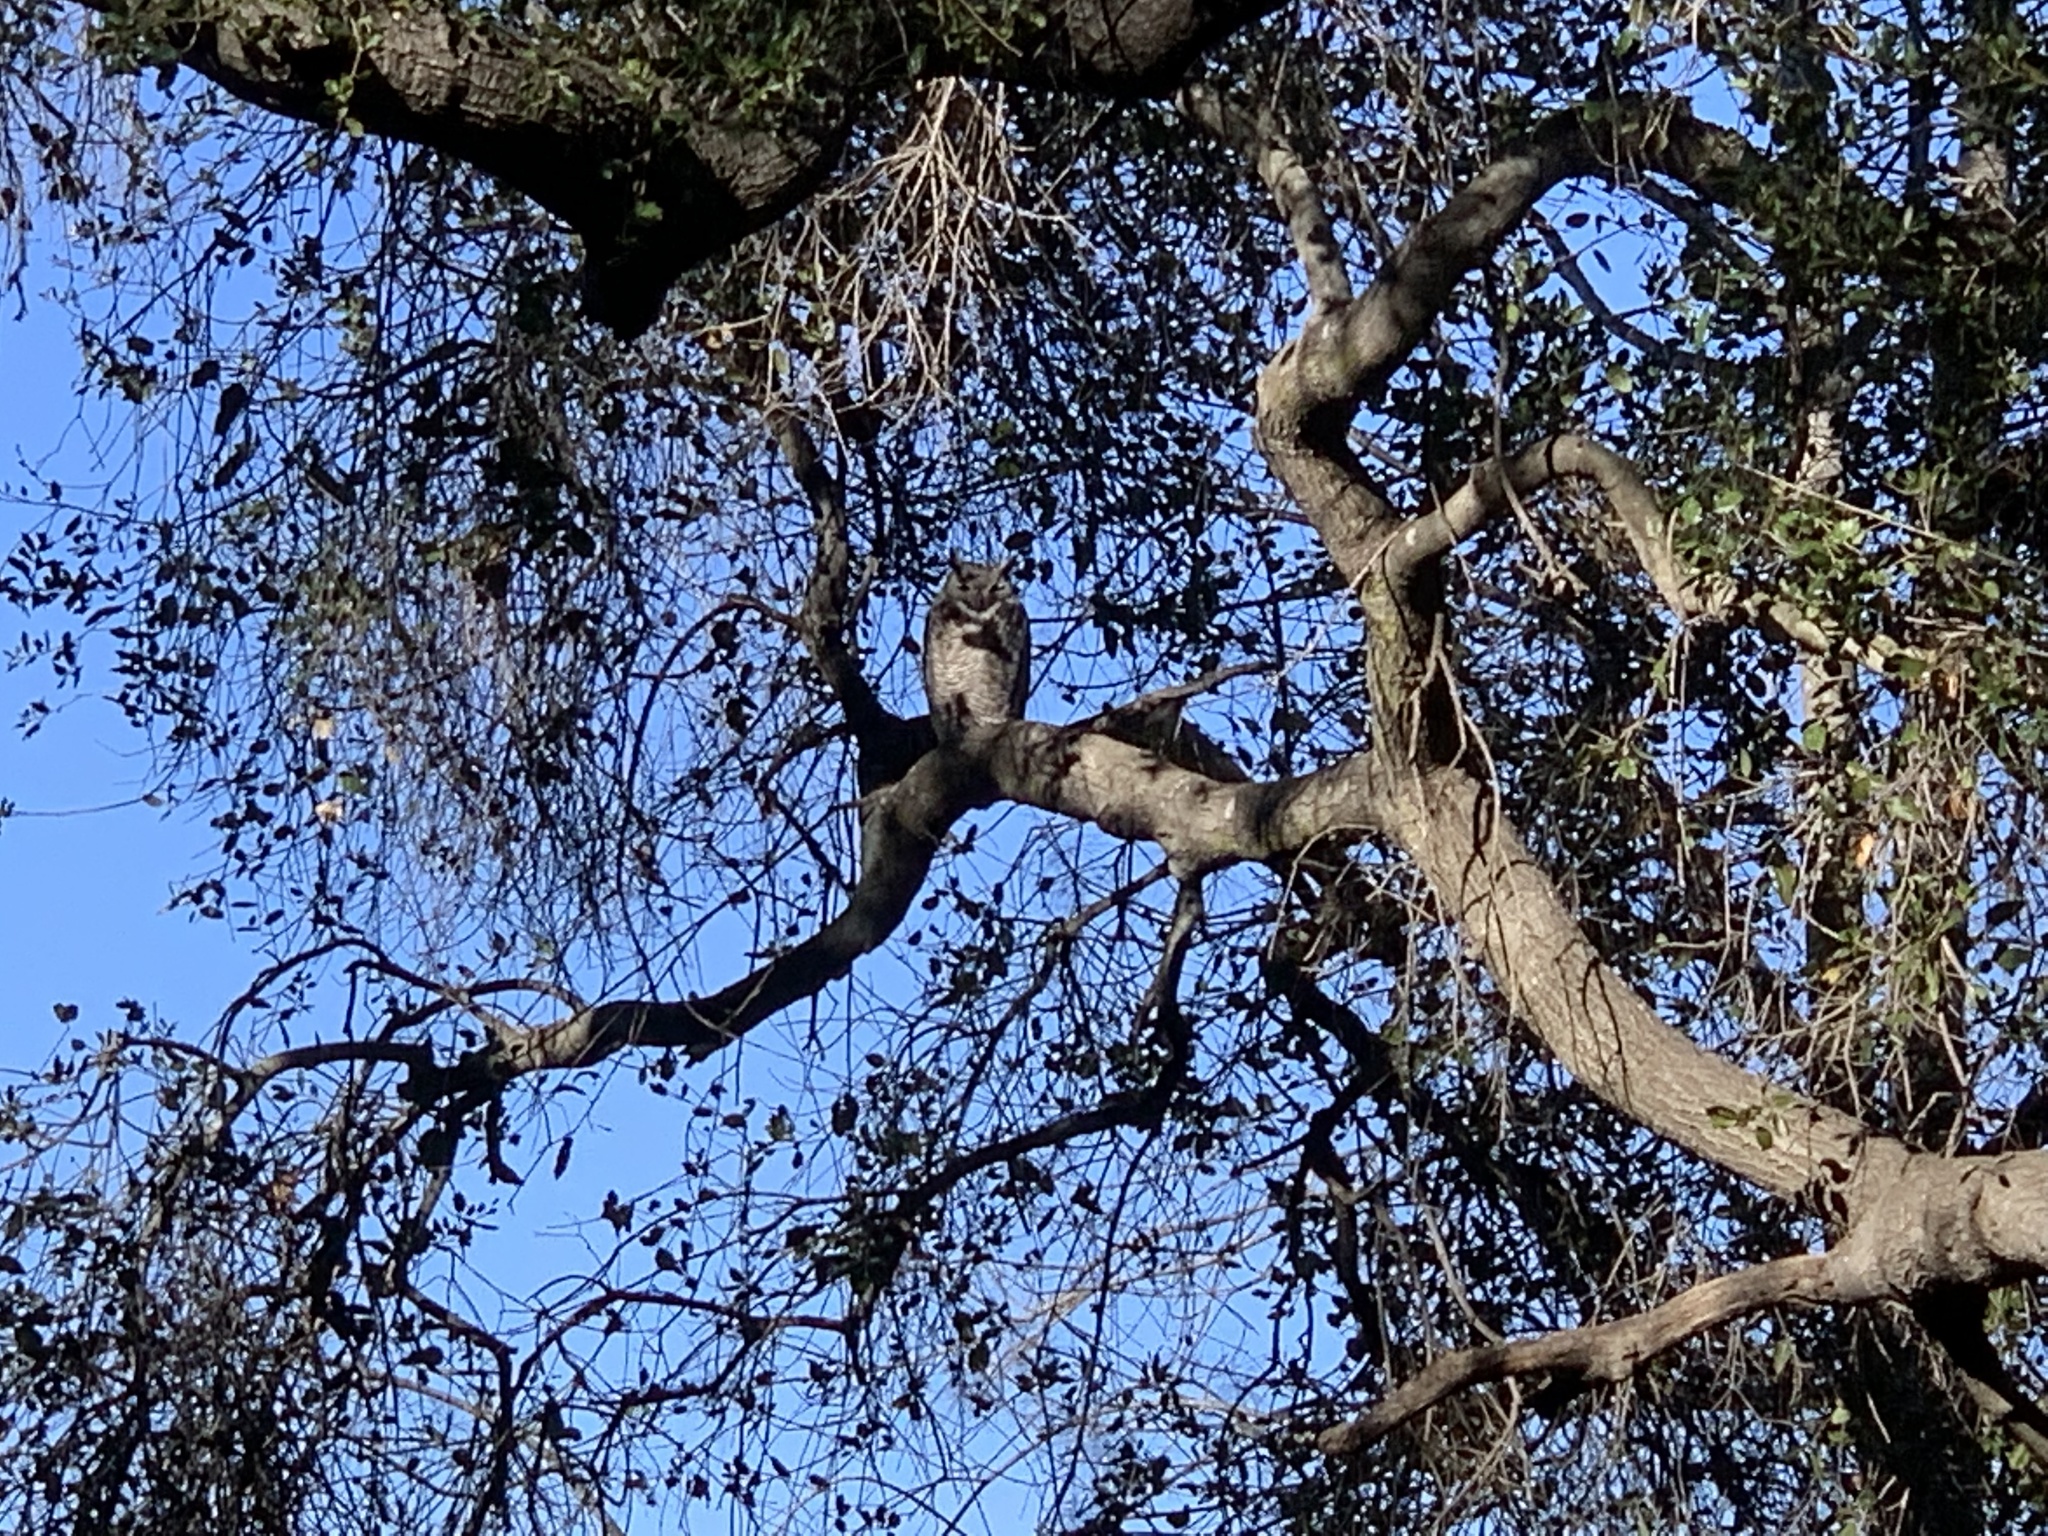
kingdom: Animalia
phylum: Chordata
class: Aves
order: Strigiformes
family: Strigidae
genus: Bubo
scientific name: Bubo virginianus
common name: Great horned owl
